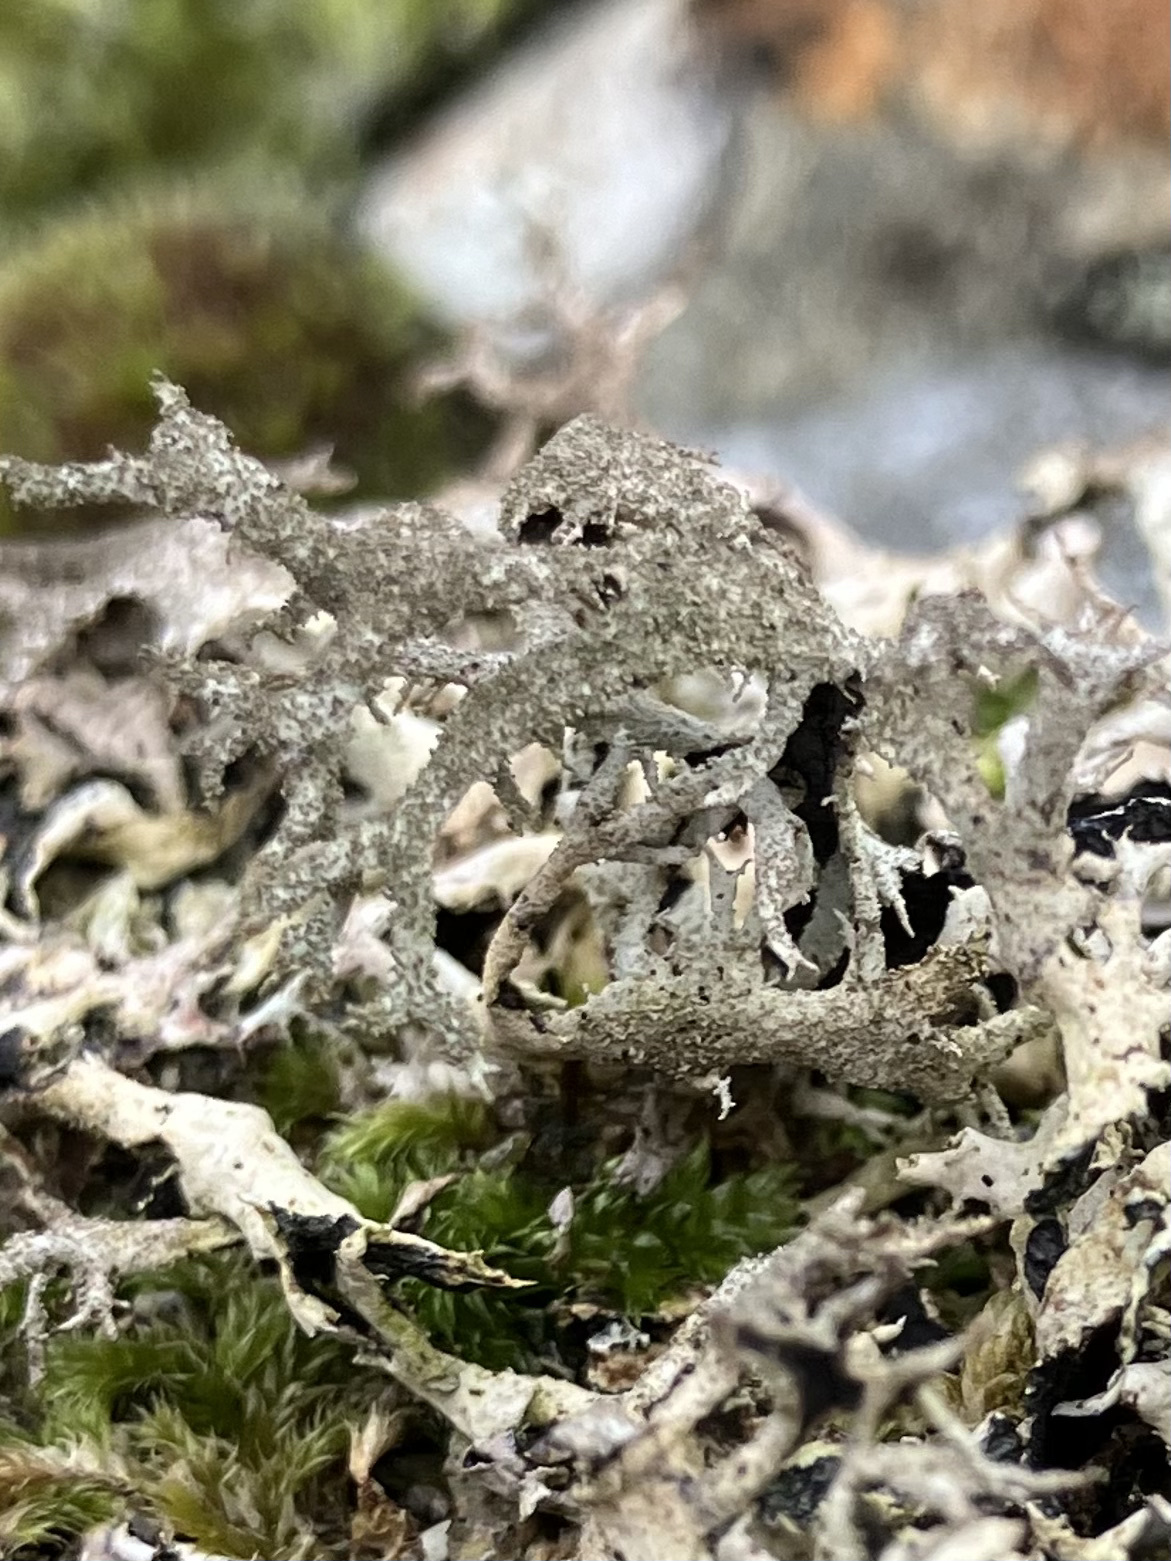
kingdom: Fungi
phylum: Ascomycota
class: Lecanoromycetes
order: Lecanorales
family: Parmeliaceae
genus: Pseudevernia
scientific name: Pseudevernia furfuracea
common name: Tree moss
